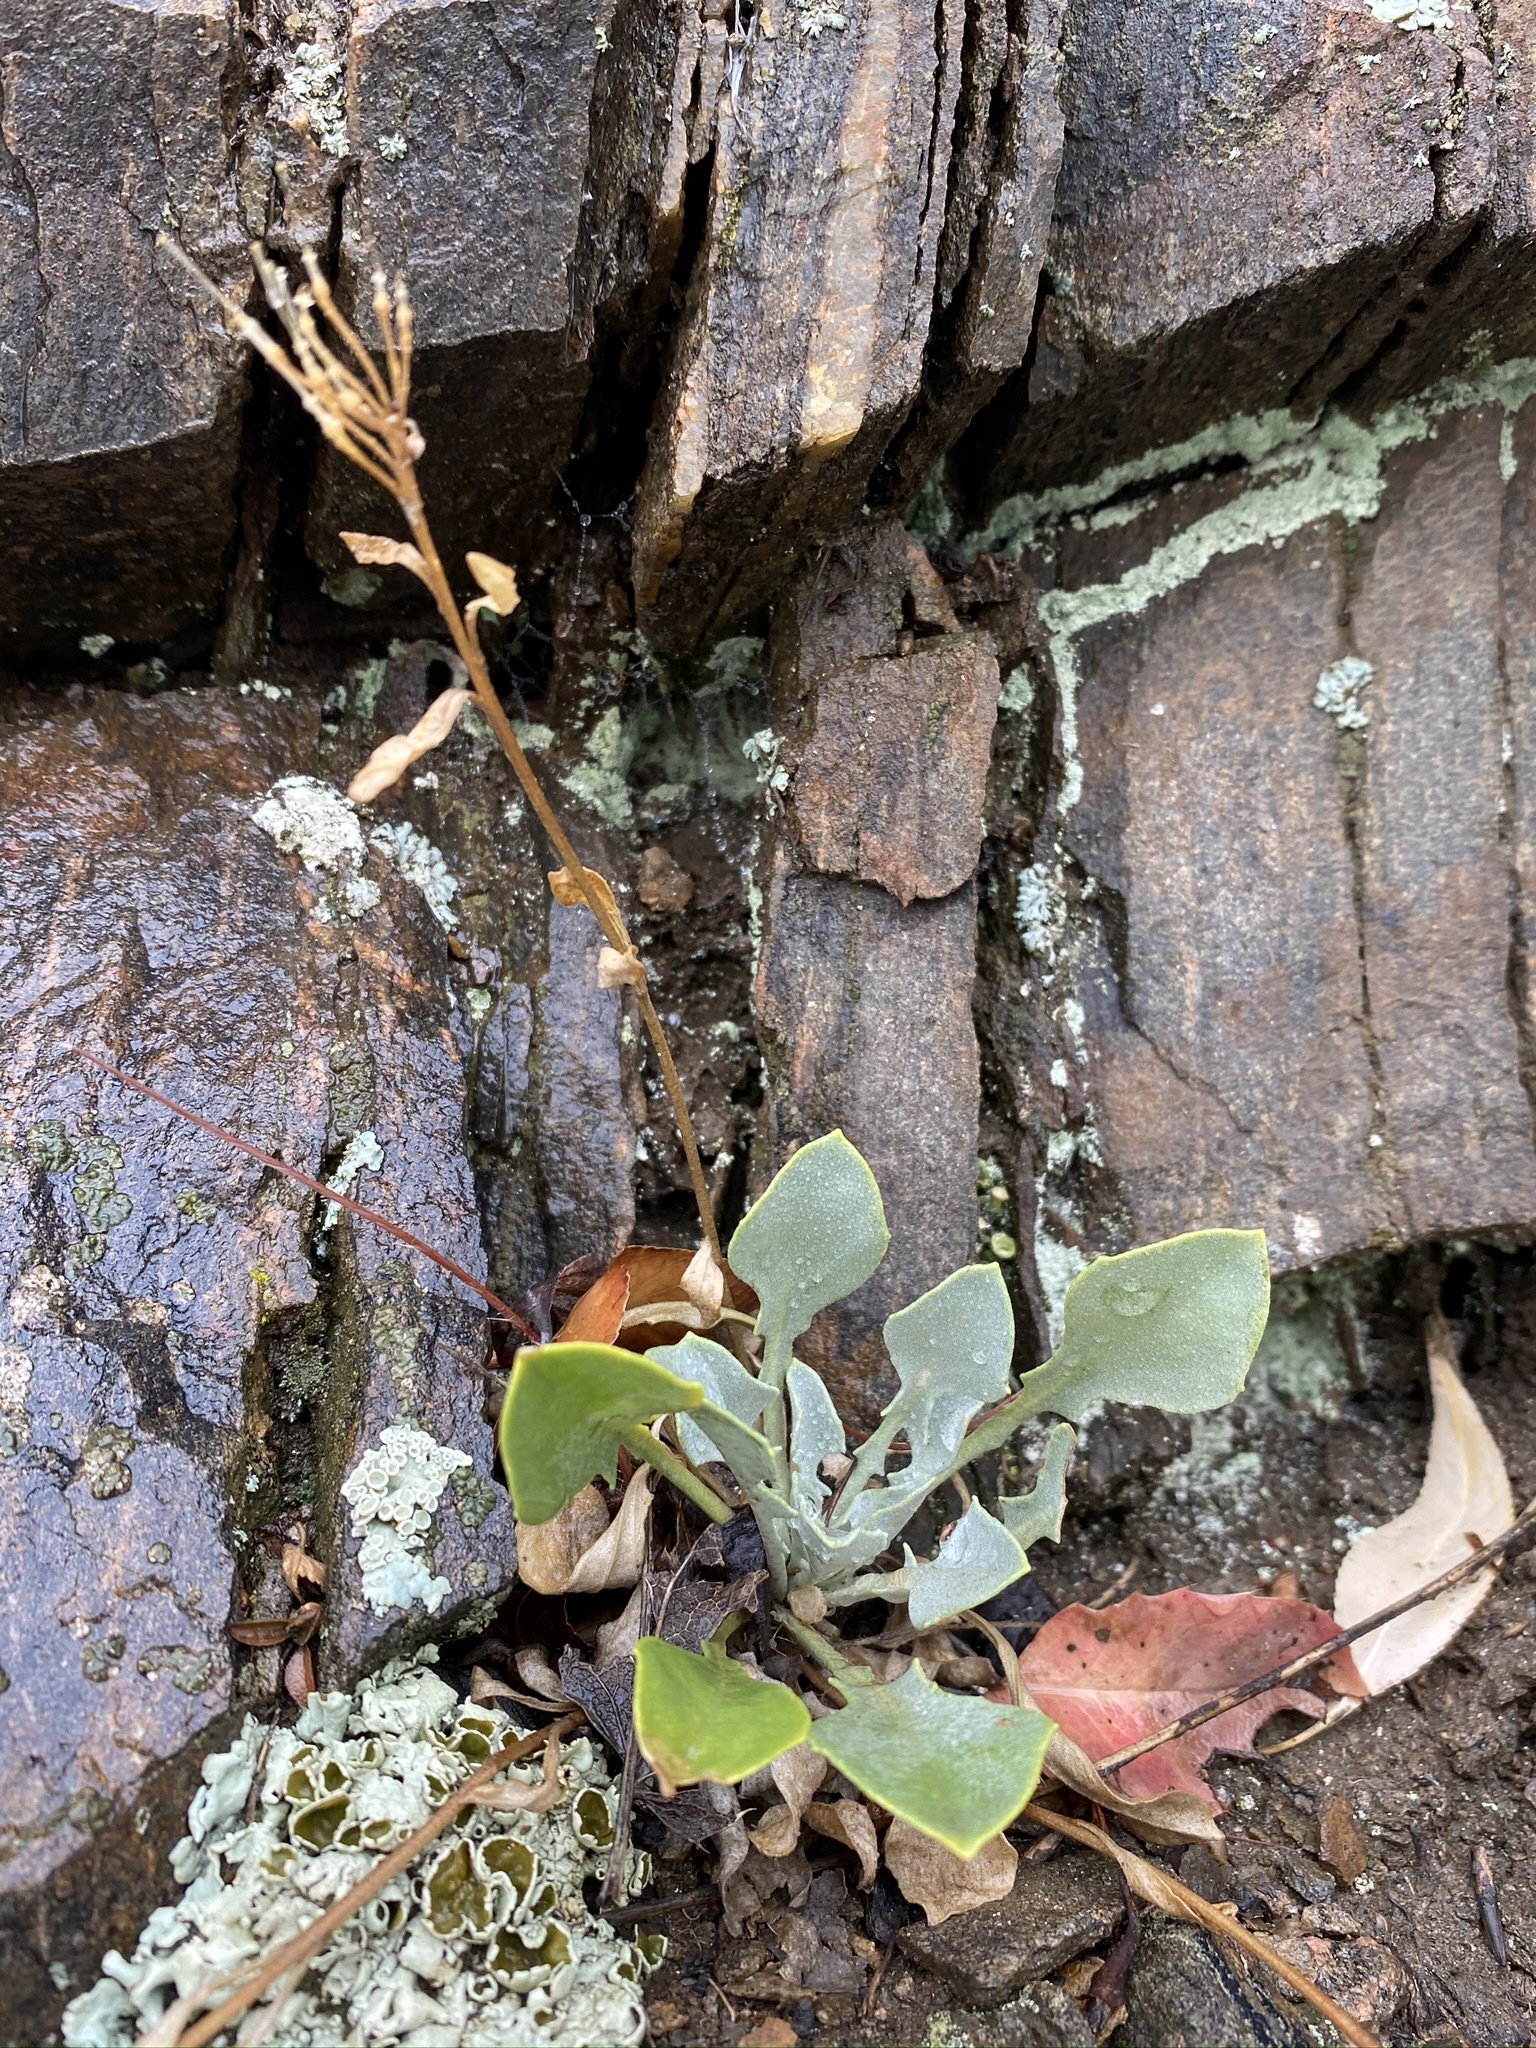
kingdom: Plantae
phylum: Tracheophyta
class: Magnoliopsida
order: Brassicales
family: Brassicaceae
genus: Physaria
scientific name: Physaria vitulifera
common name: Roundtrip twinpod
